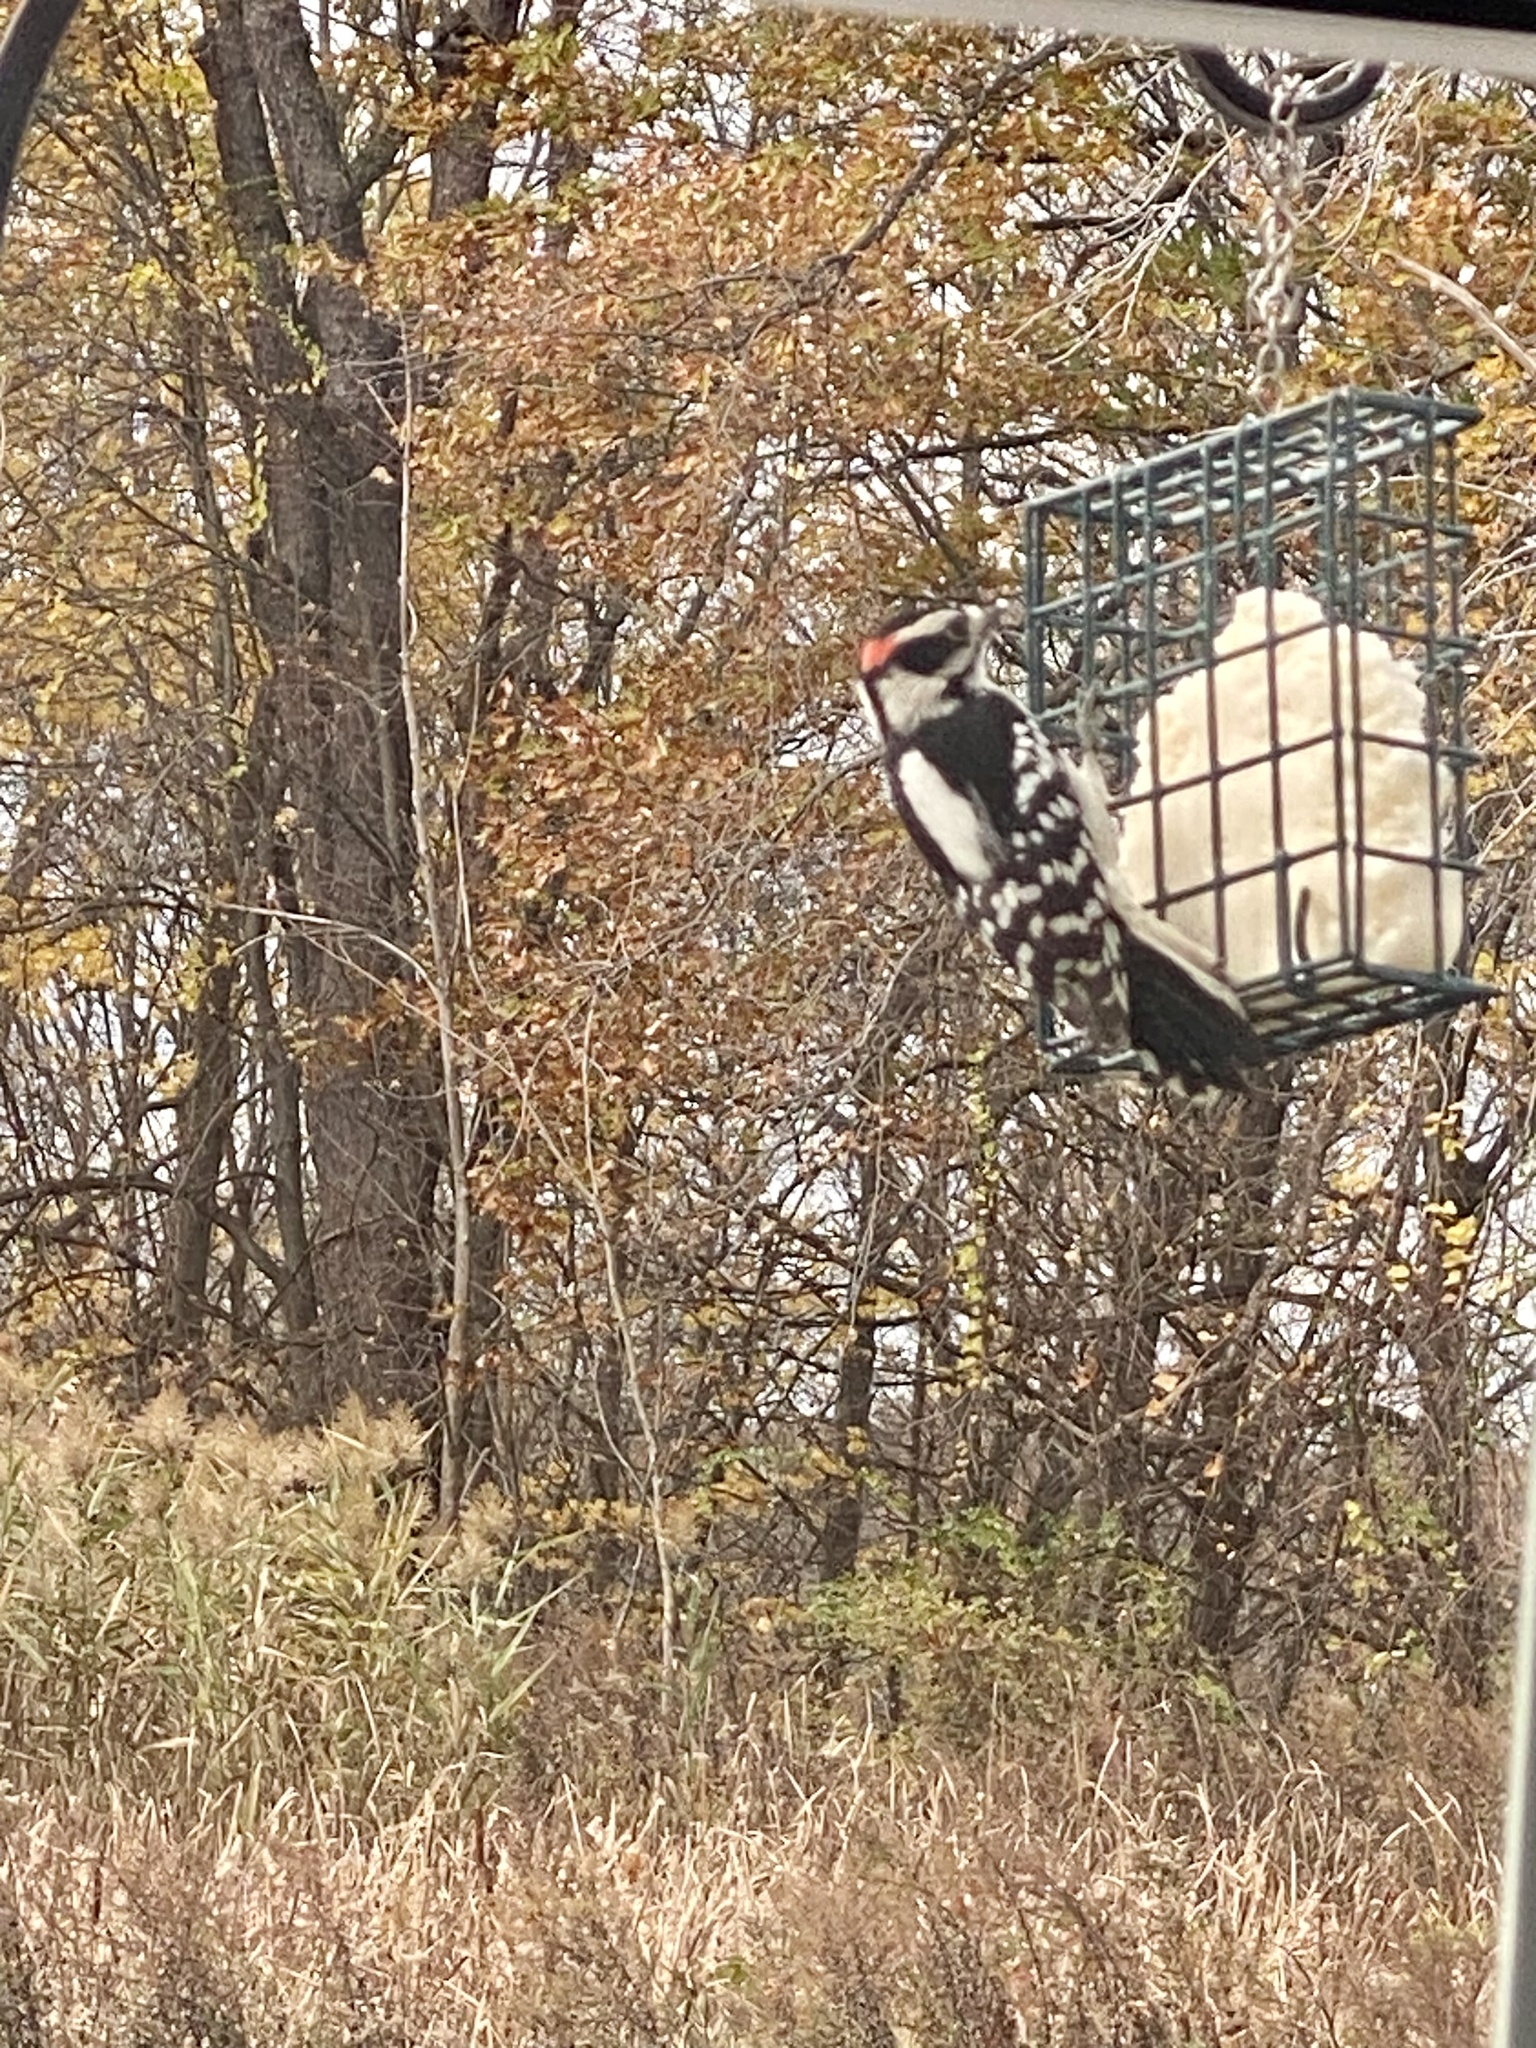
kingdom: Animalia
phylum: Chordata
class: Aves
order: Piciformes
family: Picidae
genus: Dryobates
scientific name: Dryobates pubescens
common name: Downy woodpecker
